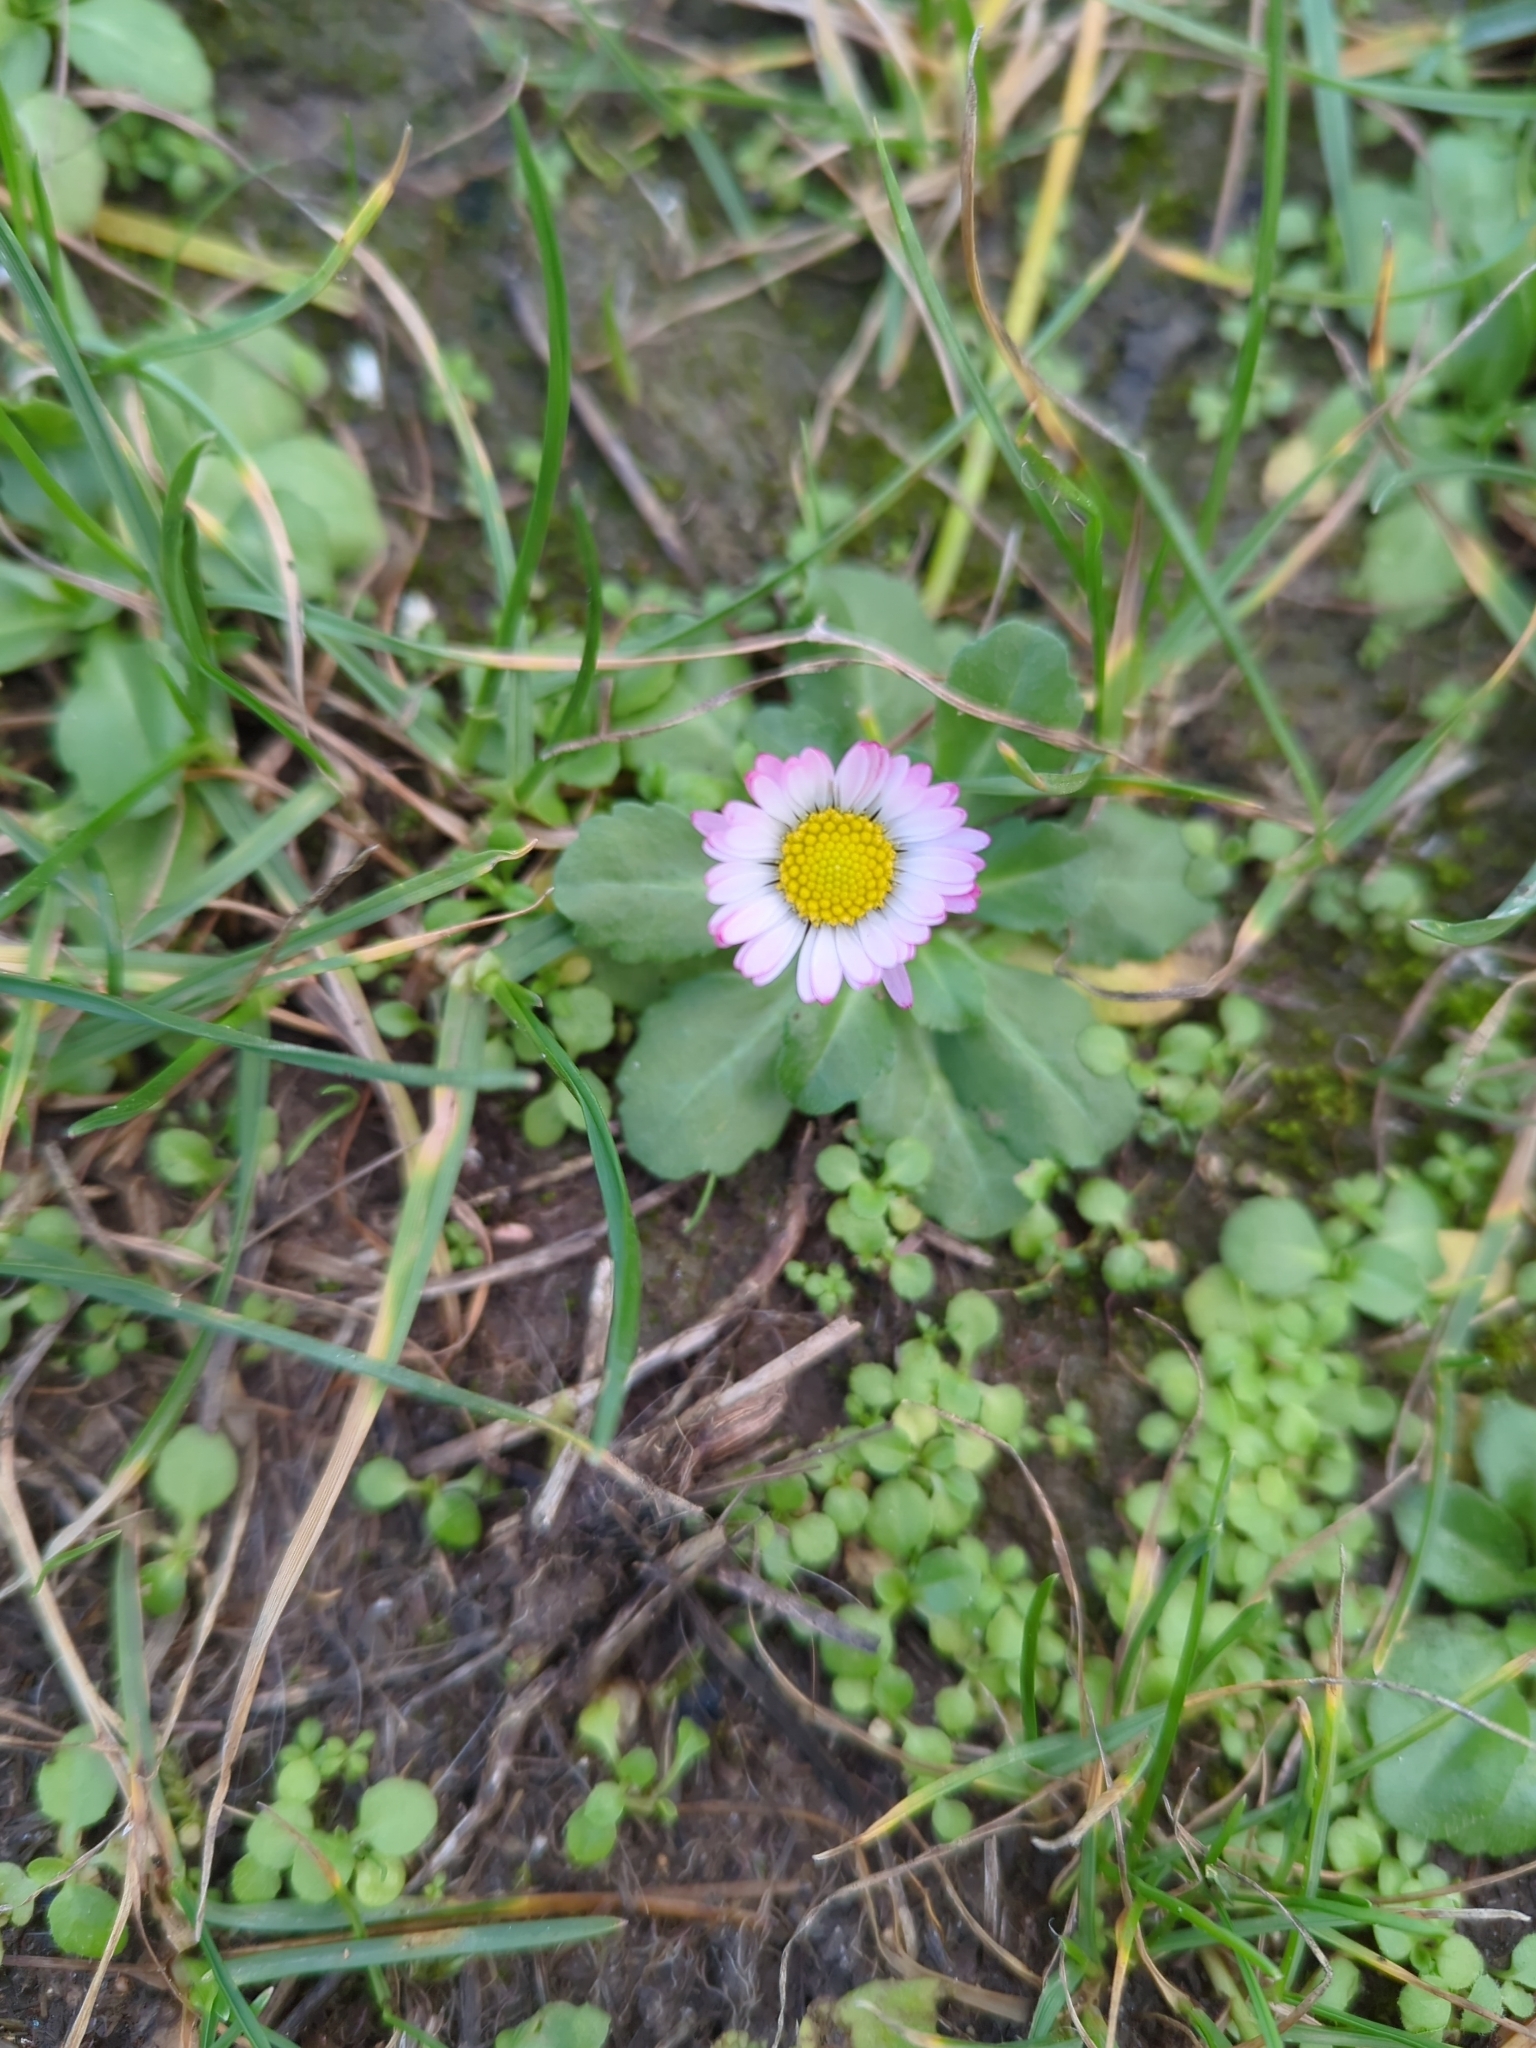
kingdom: Plantae
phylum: Tracheophyta
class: Magnoliopsida
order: Asterales
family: Asteraceae
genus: Bellis
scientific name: Bellis perennis
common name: Lawndaisy
